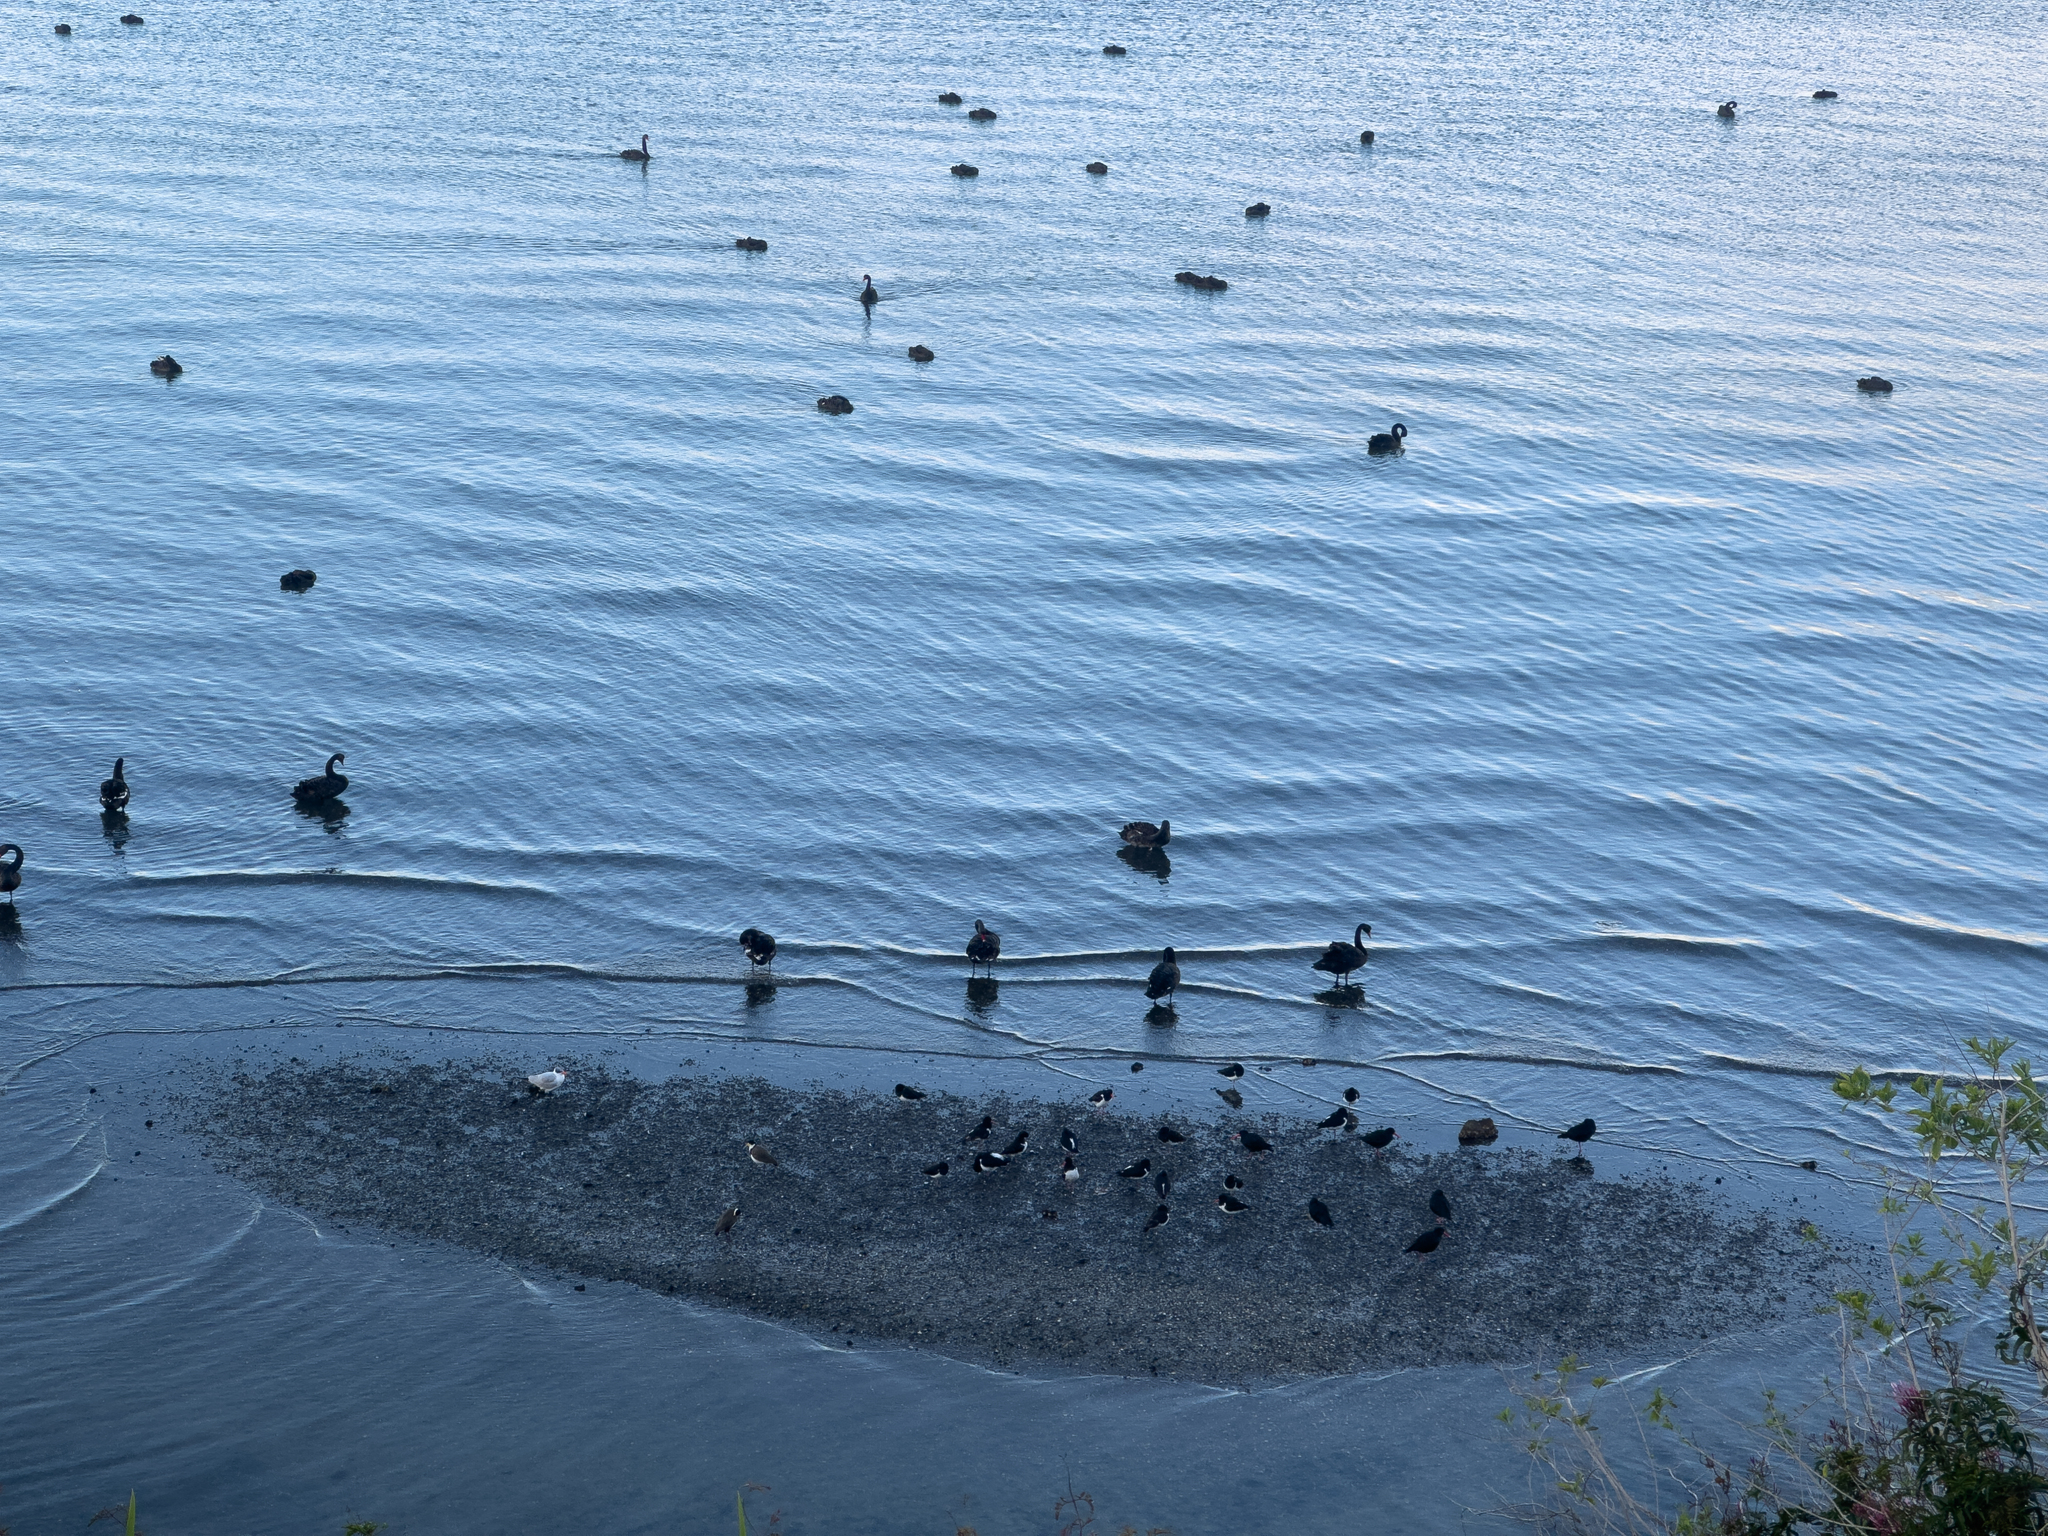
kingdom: Animalia
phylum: Chordata
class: Aves
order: Charadriiformes
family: Haematopodidae
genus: Haematopus
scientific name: Haematopus finschi
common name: South island oystercatcher
